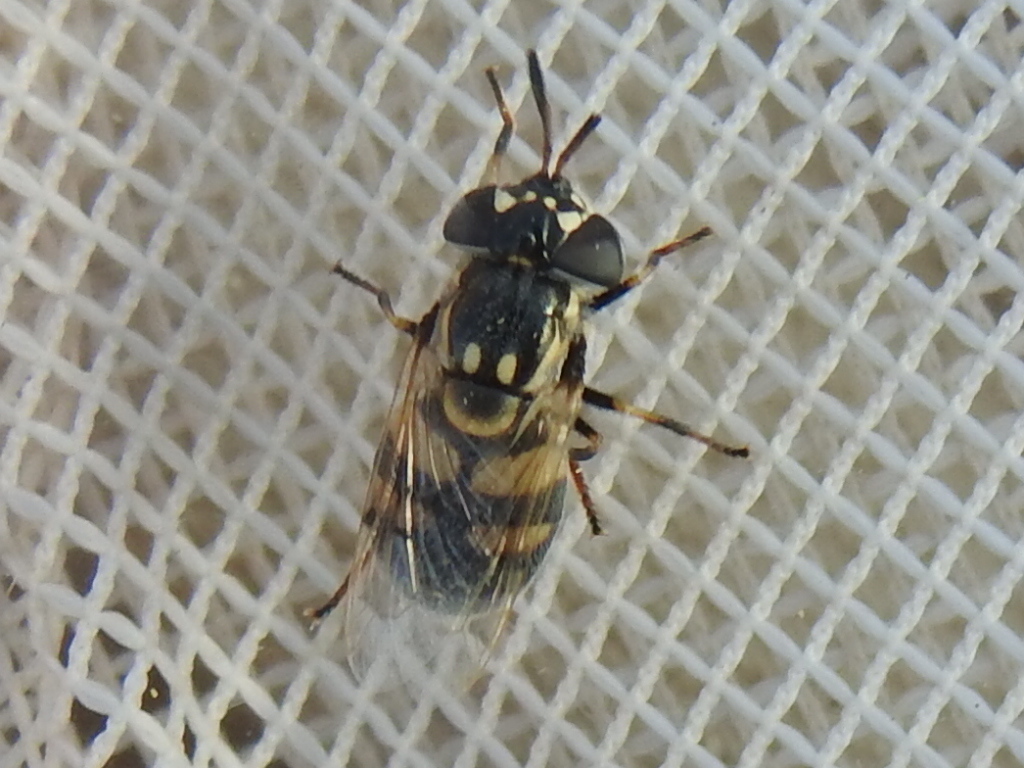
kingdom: Animalia
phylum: Arthropoda
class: Insecta
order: Diptera
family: Syrphidae
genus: Copestylum
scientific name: Copestylum caudatum
